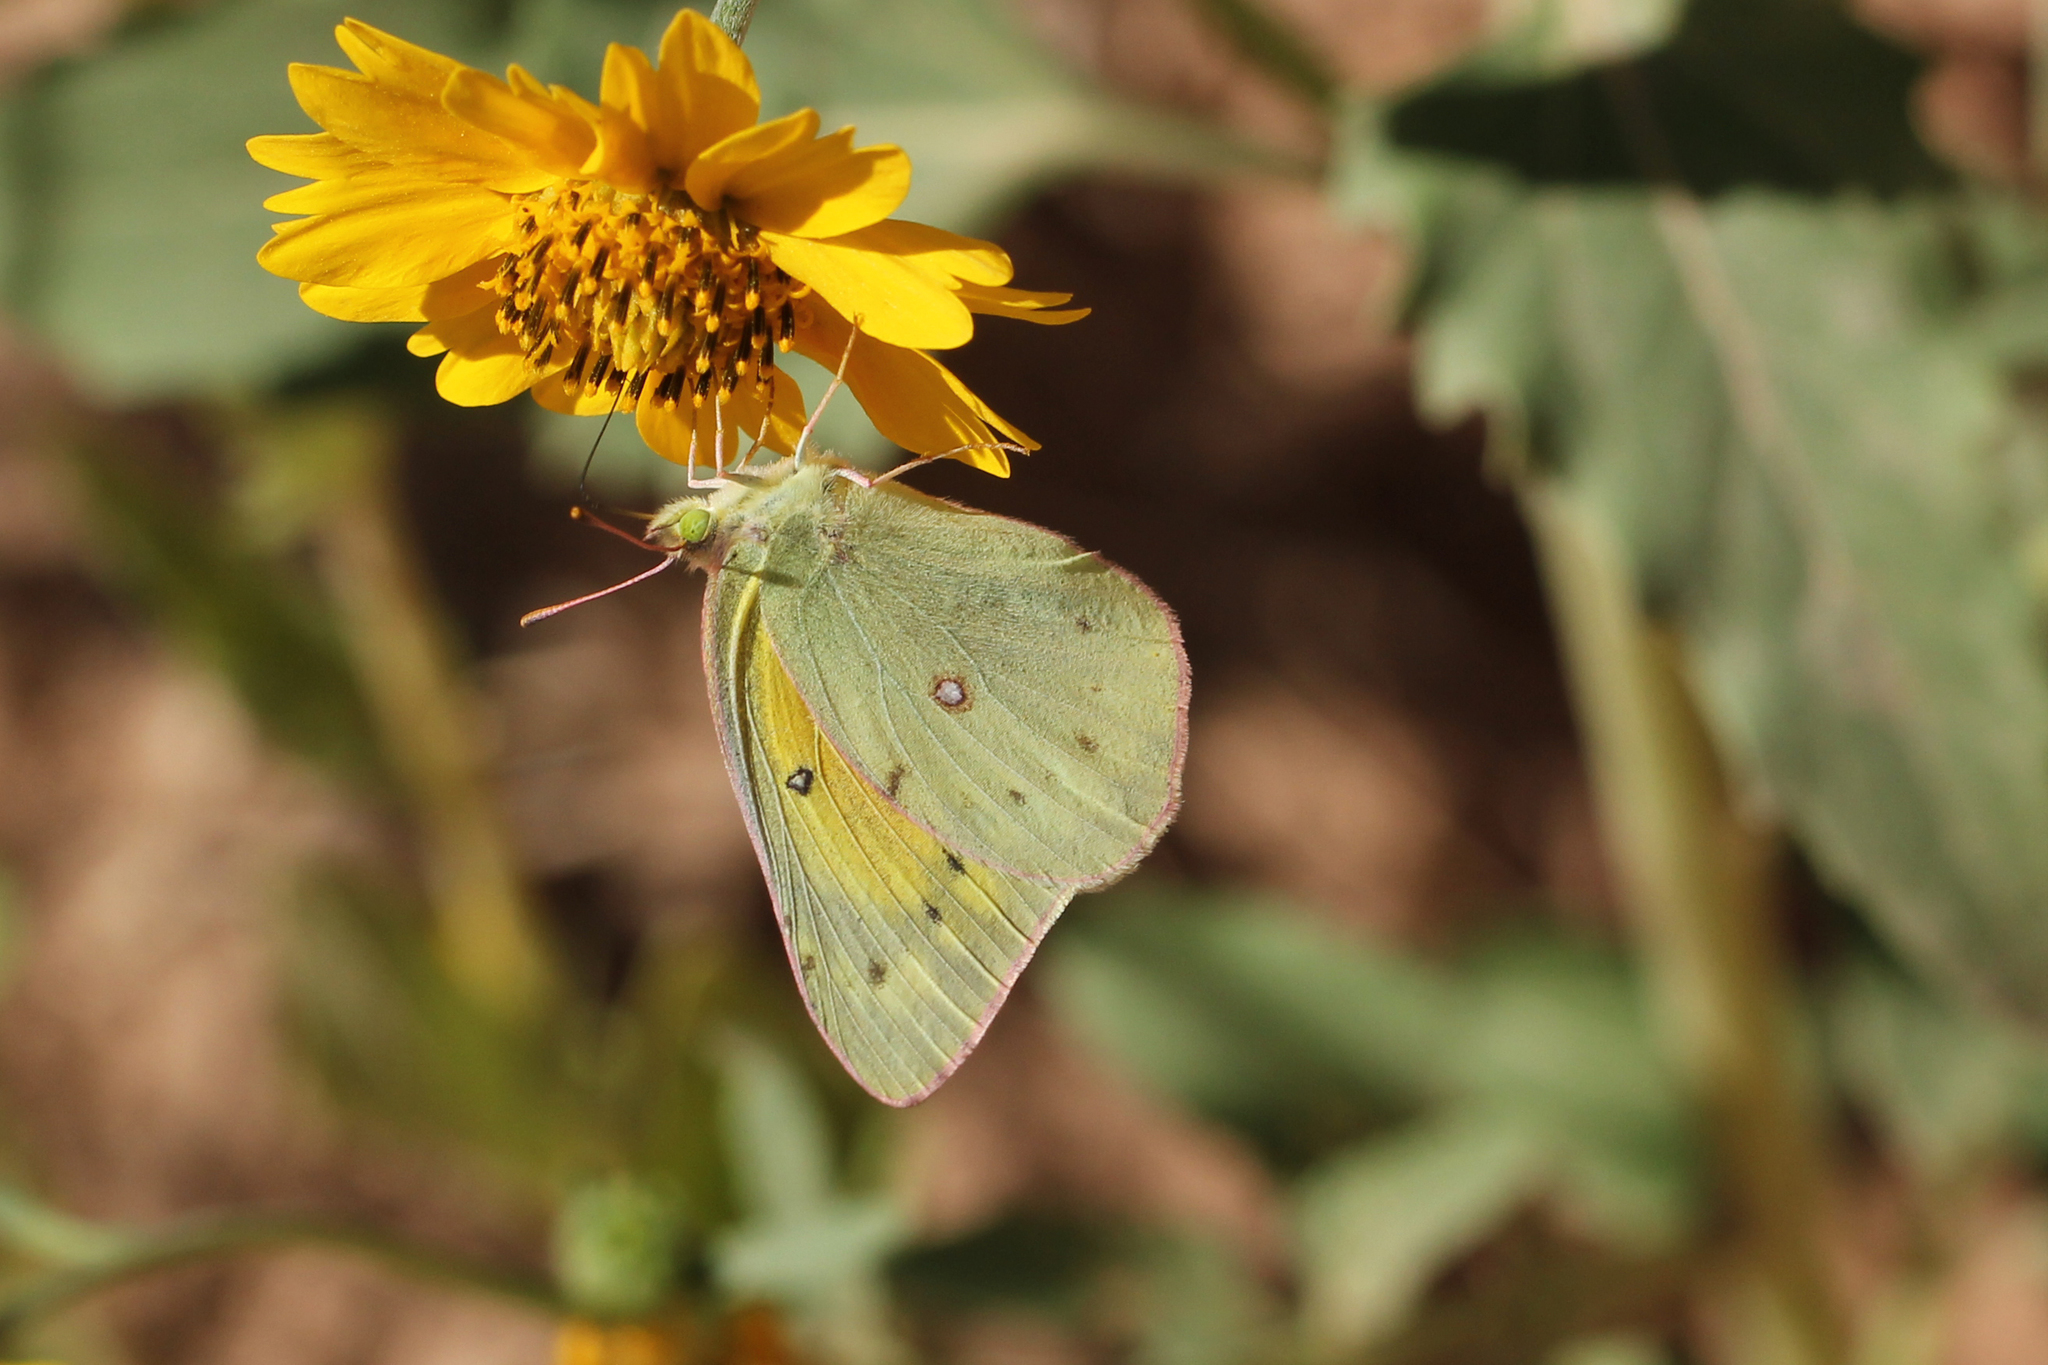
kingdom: Animalia
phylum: Arthropoda
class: Insecta
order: Lepidoptera
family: Pieridae
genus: Colias
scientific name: Colias eurytheme
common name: Alfalfa butterfly
